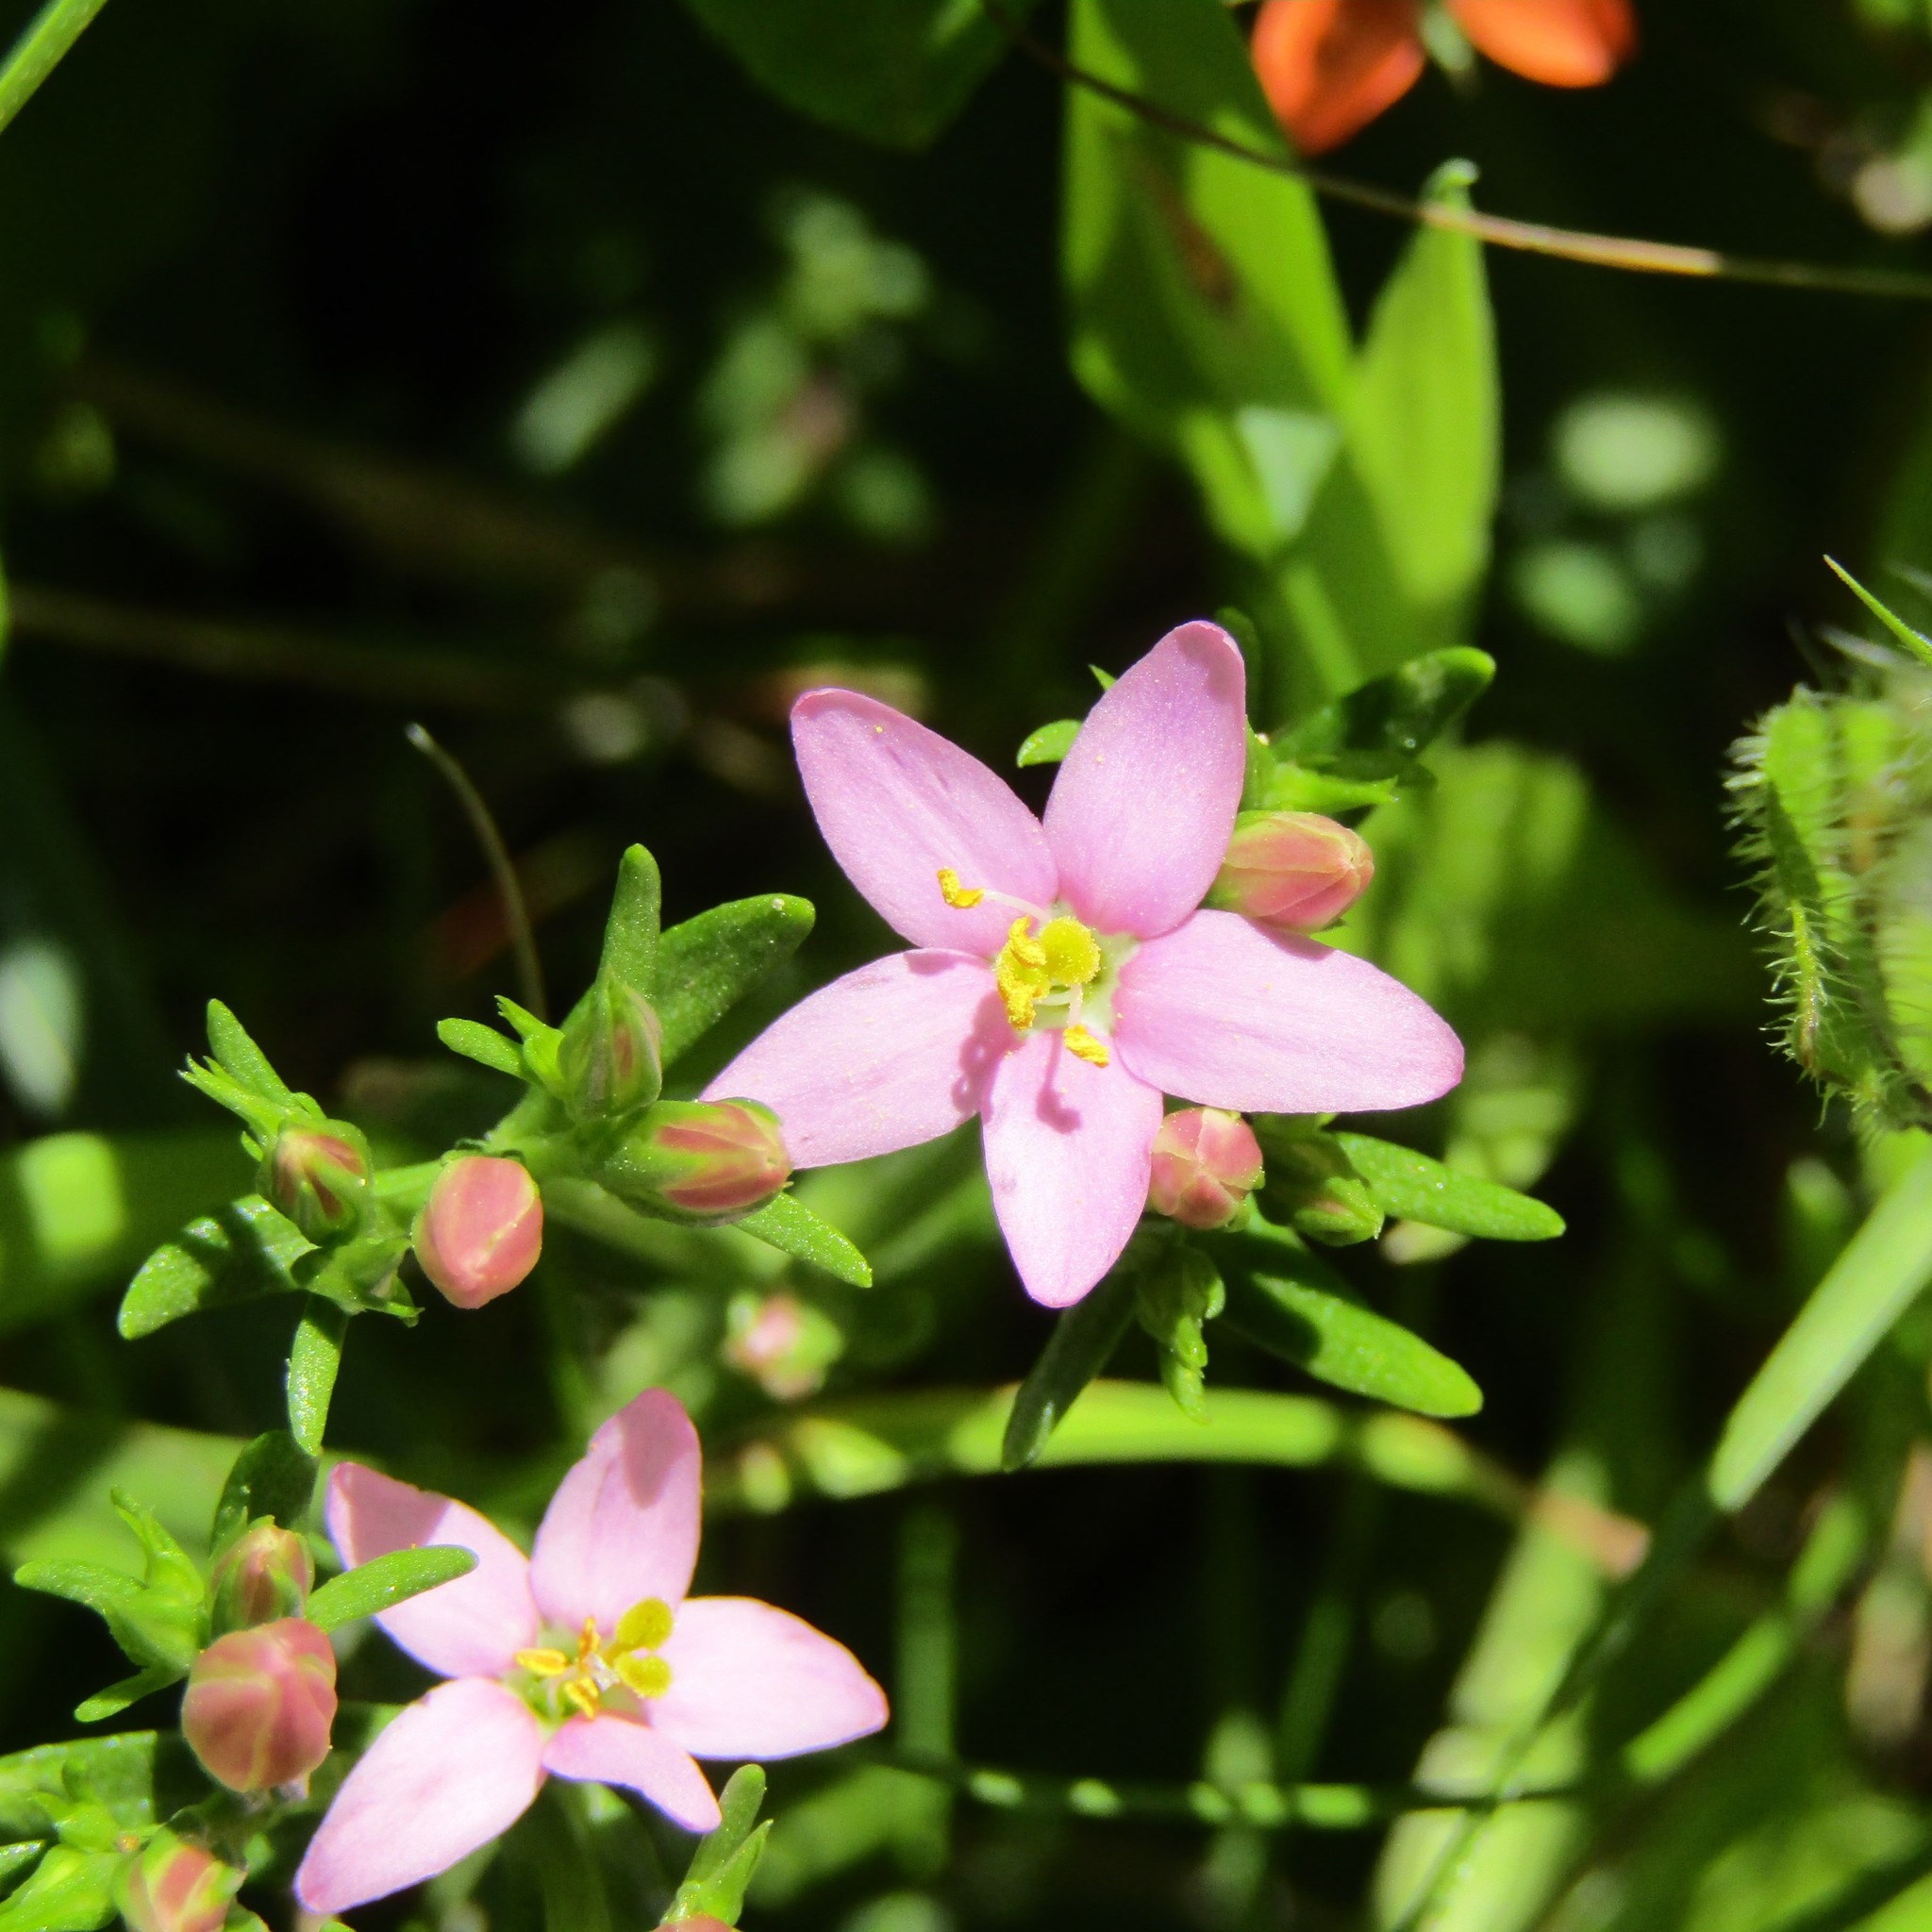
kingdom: Plantae
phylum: Tracheophyta
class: Magnoliopsida
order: Gentianales
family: Gentianaceae
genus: Centaurium
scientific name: Centaurium erythraea
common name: Common centaury
